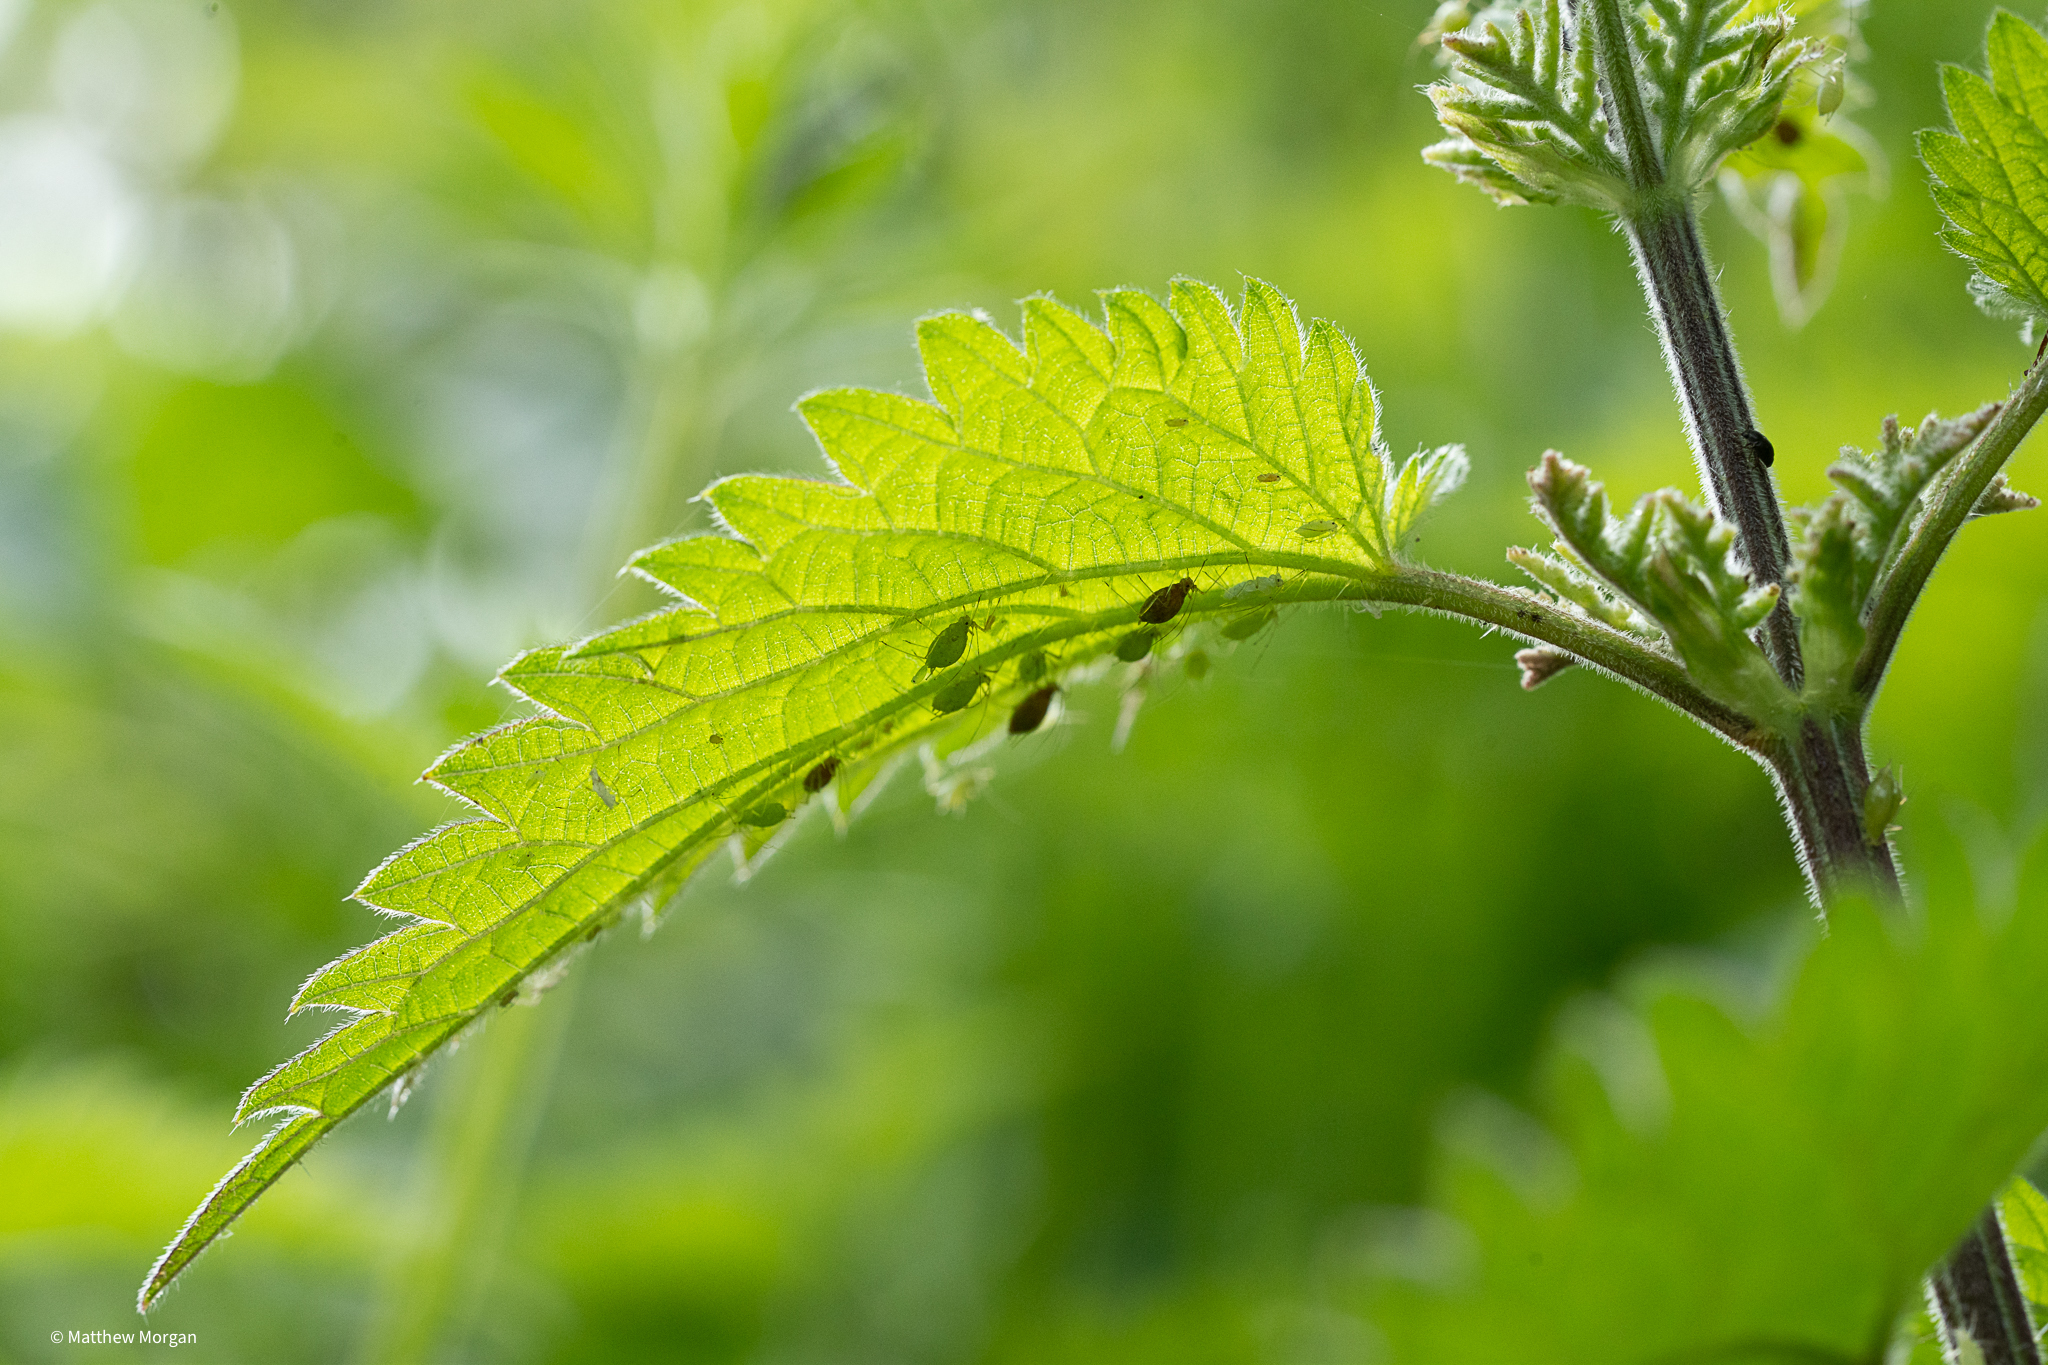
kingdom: Animalia
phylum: Arthropoda
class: Insecta
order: Hemiptera
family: Aphididae
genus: Microlophium
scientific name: Microlophium carnosum
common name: Aphid
